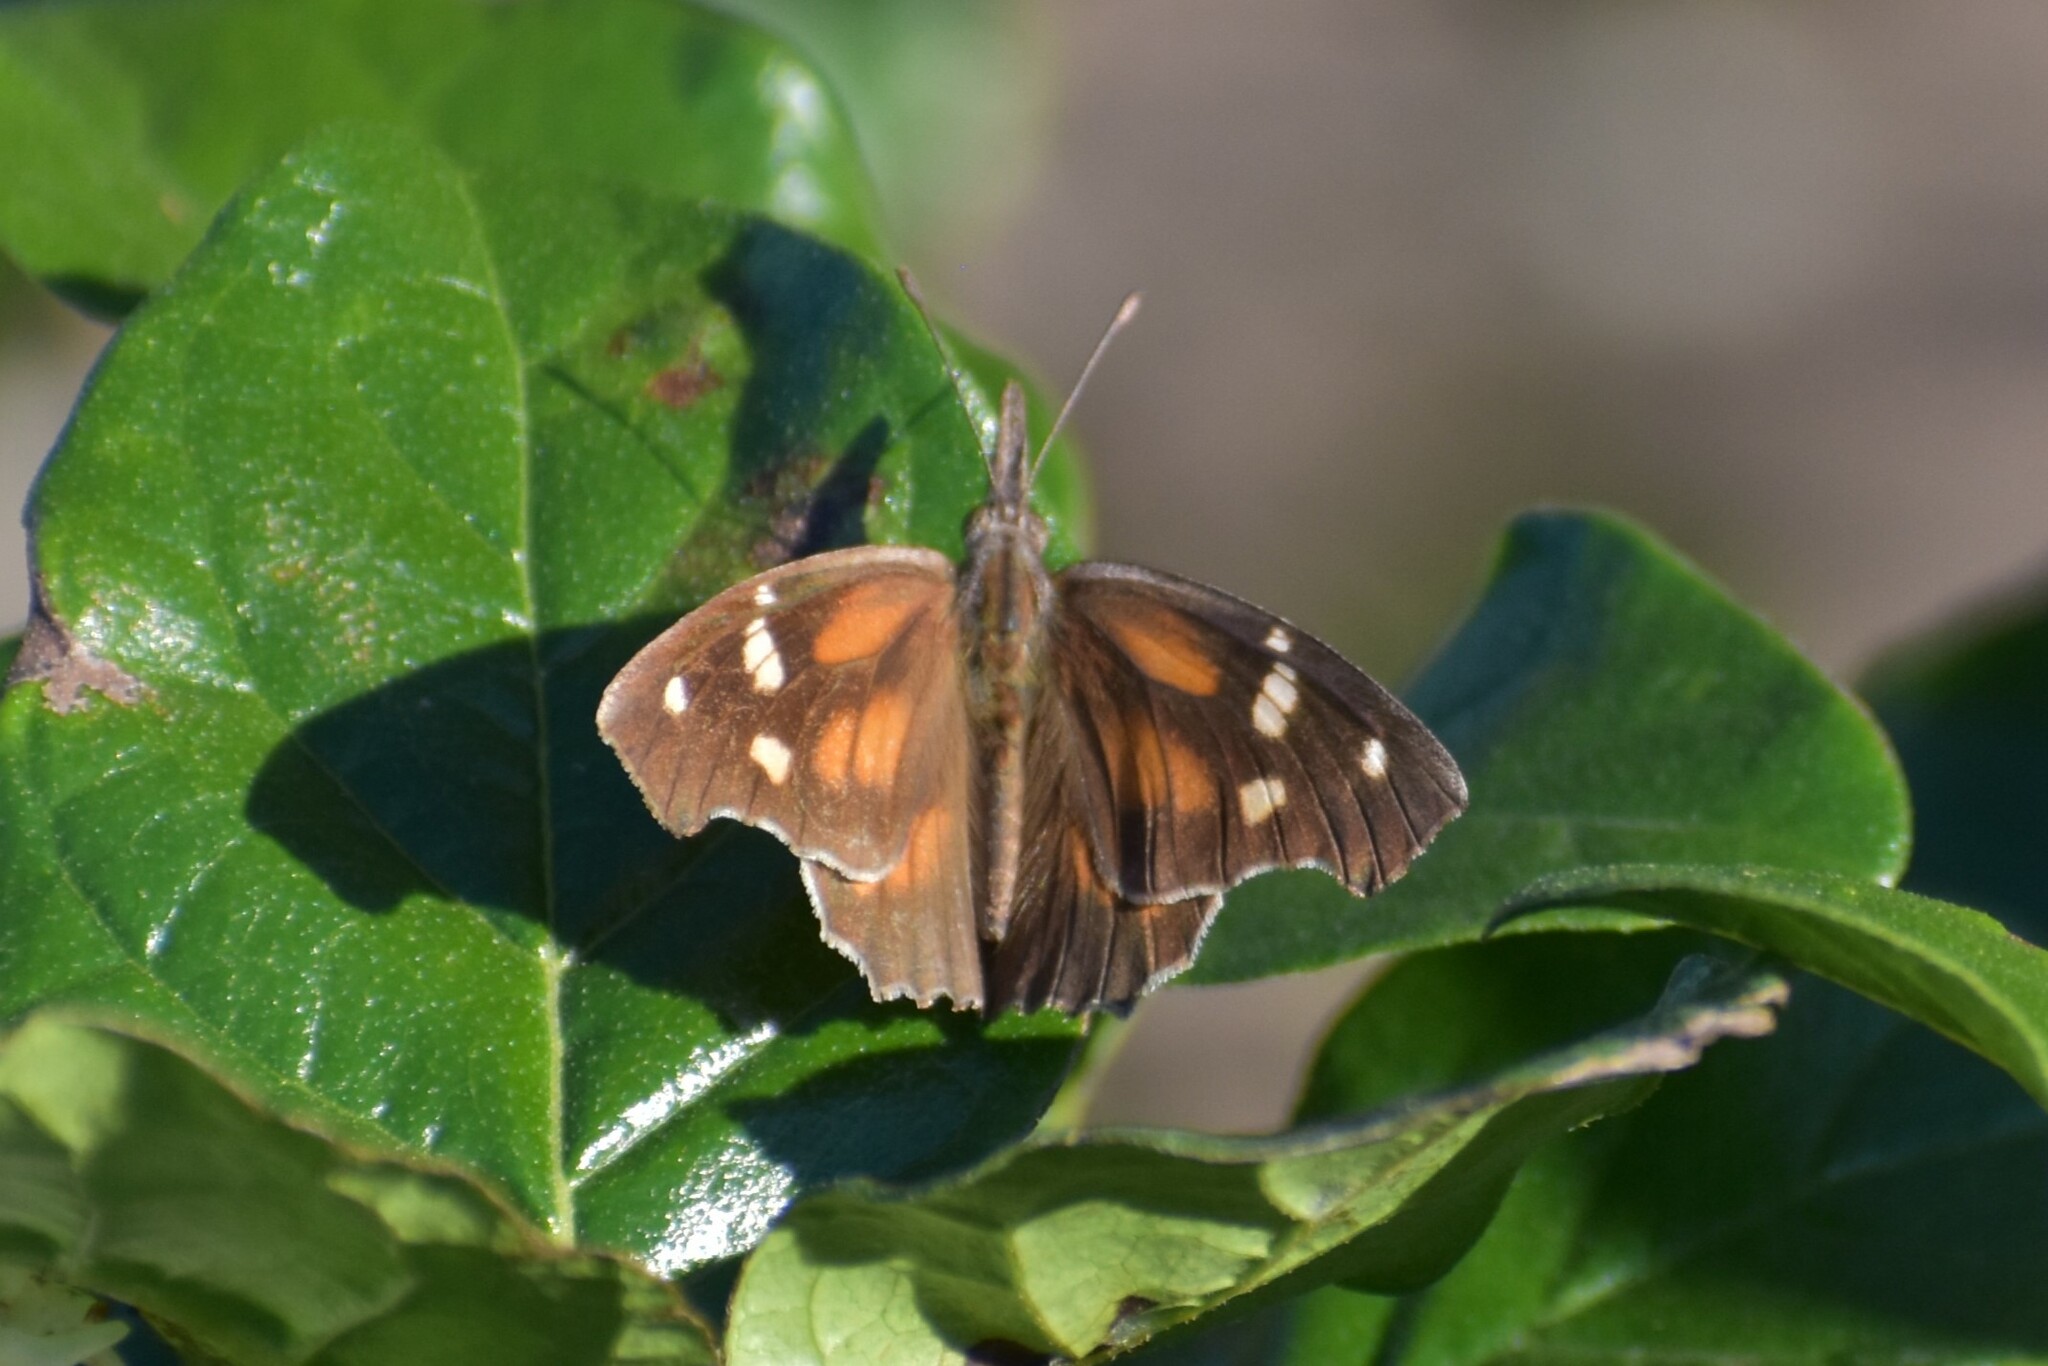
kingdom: Animalia
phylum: Arthropoda
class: Insecta
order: Lepidoptera
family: Nymphalidae
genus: Libytheana
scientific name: Libytheana carinenta
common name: American snout
